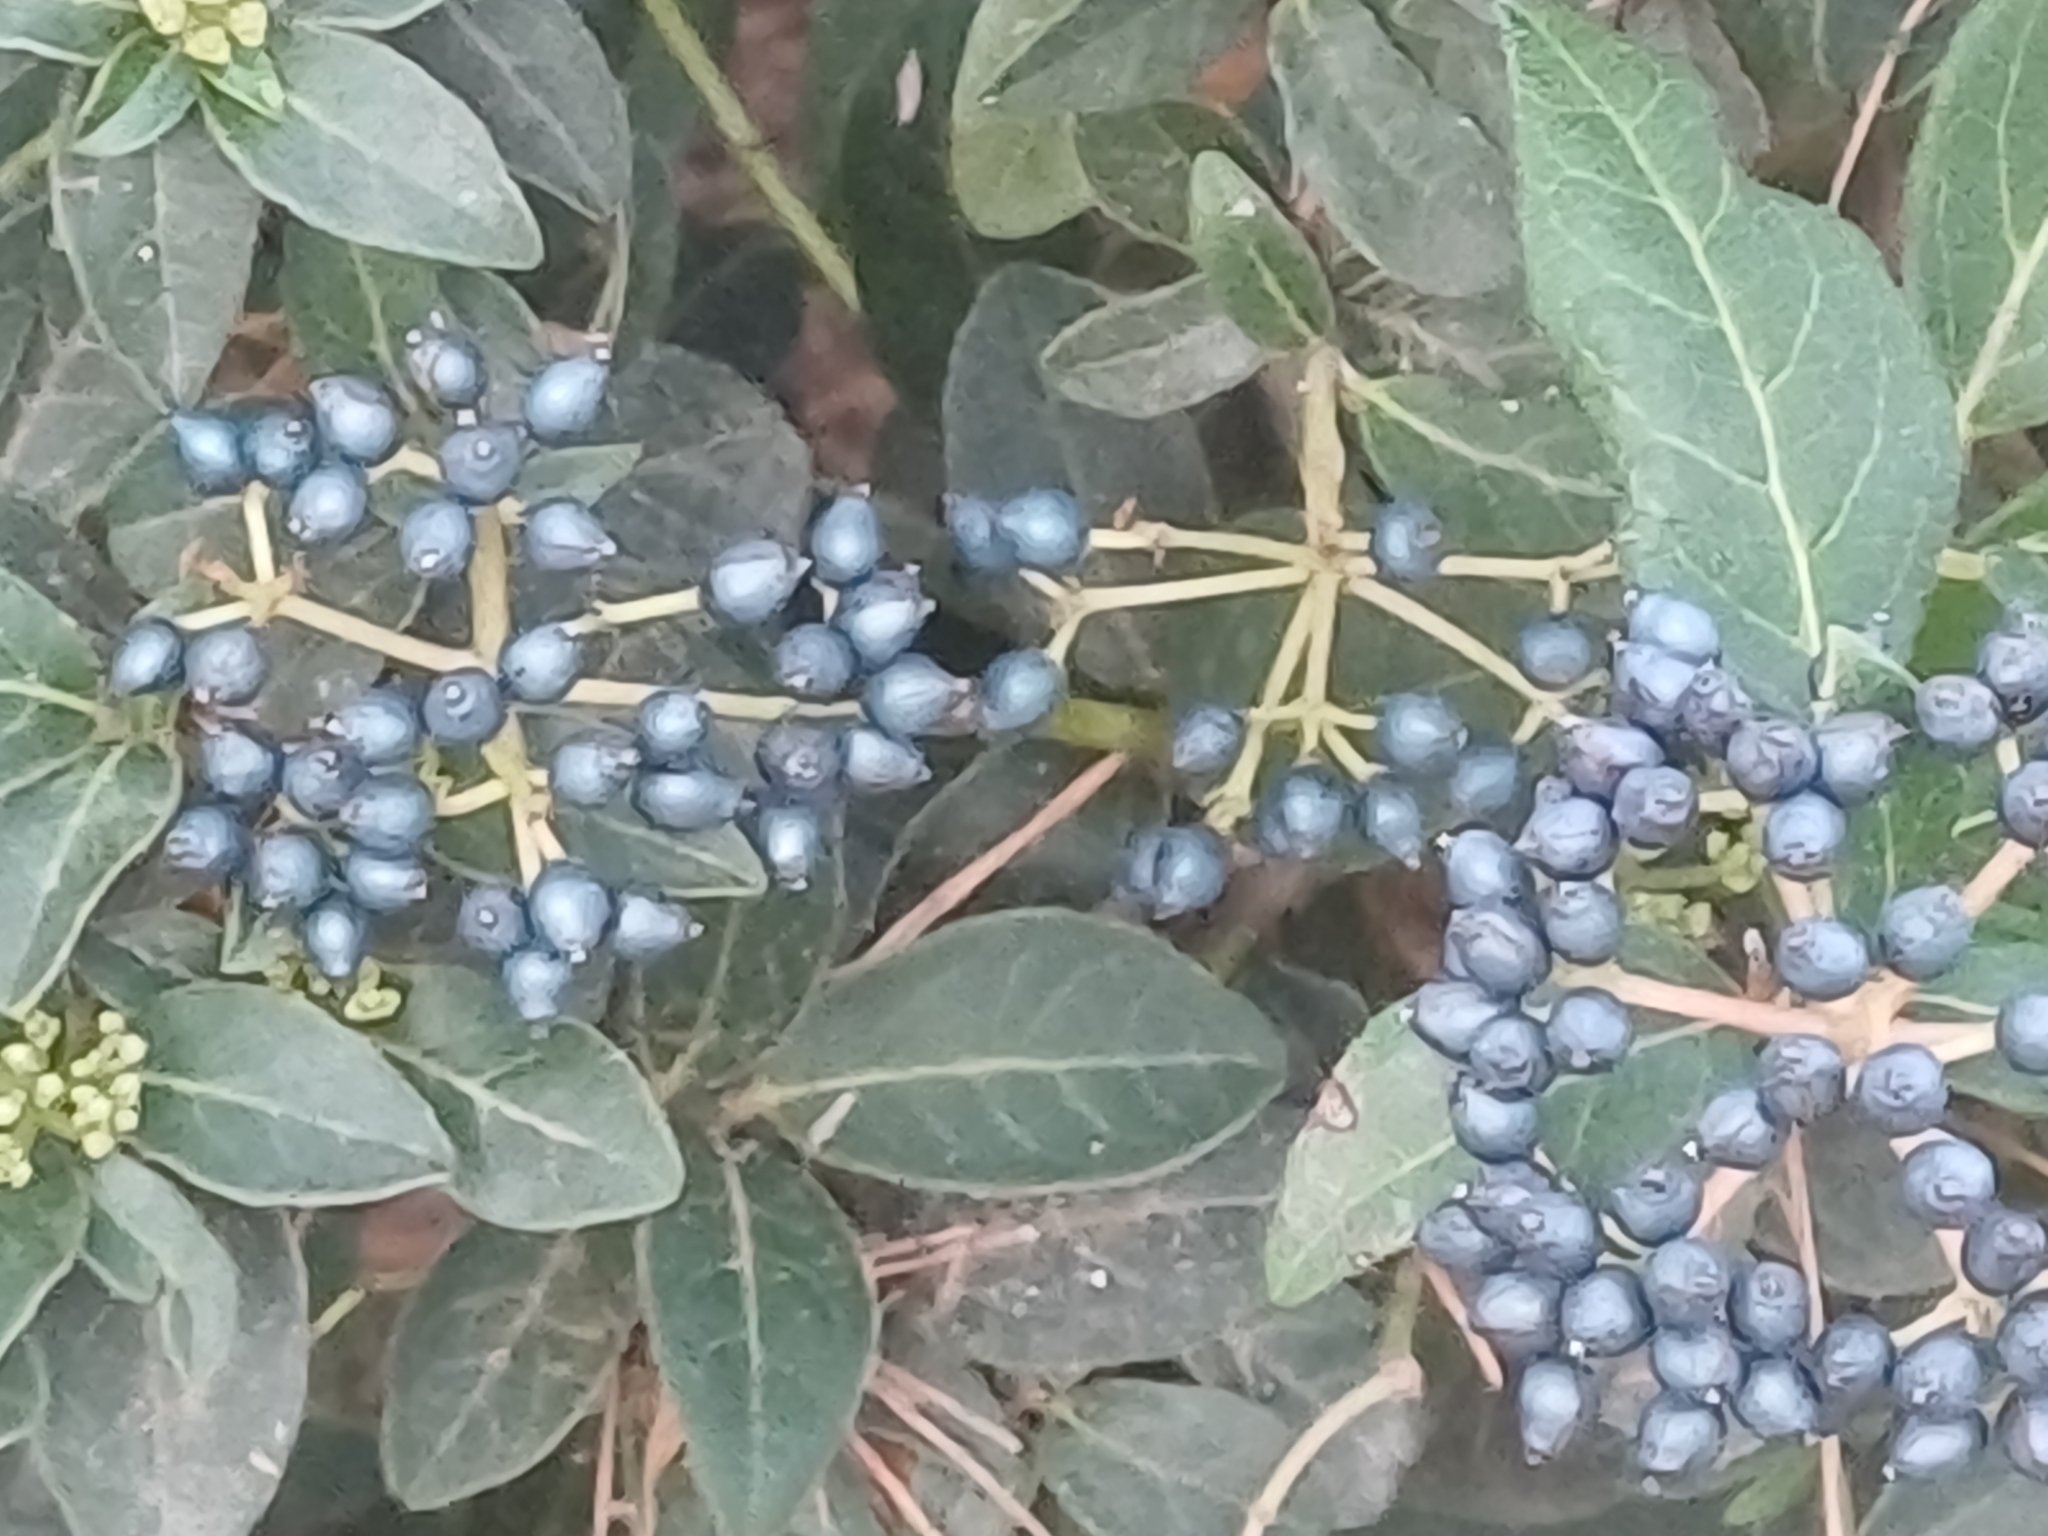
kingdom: Plantae
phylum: Tracheophyta
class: Magnoliopsida
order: Dipsacales
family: Viburnaceae
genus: Viburnum
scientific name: Viburnum tinus
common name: Laurustinus
